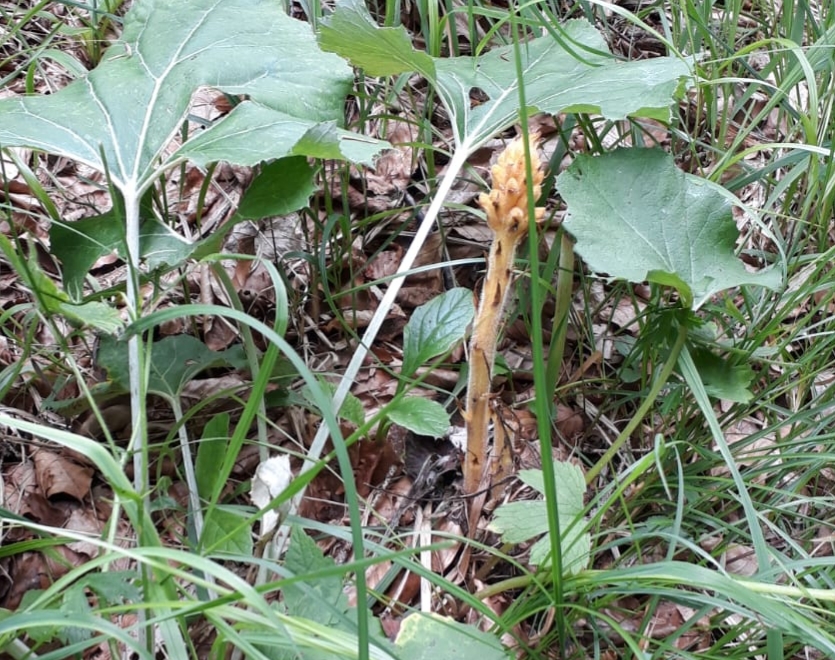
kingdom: Plantae
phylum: Tracheophyta
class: Magnoliopsida
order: Lamiales
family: Orobanchaceae
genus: Orobanche
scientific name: Orobanche flava
